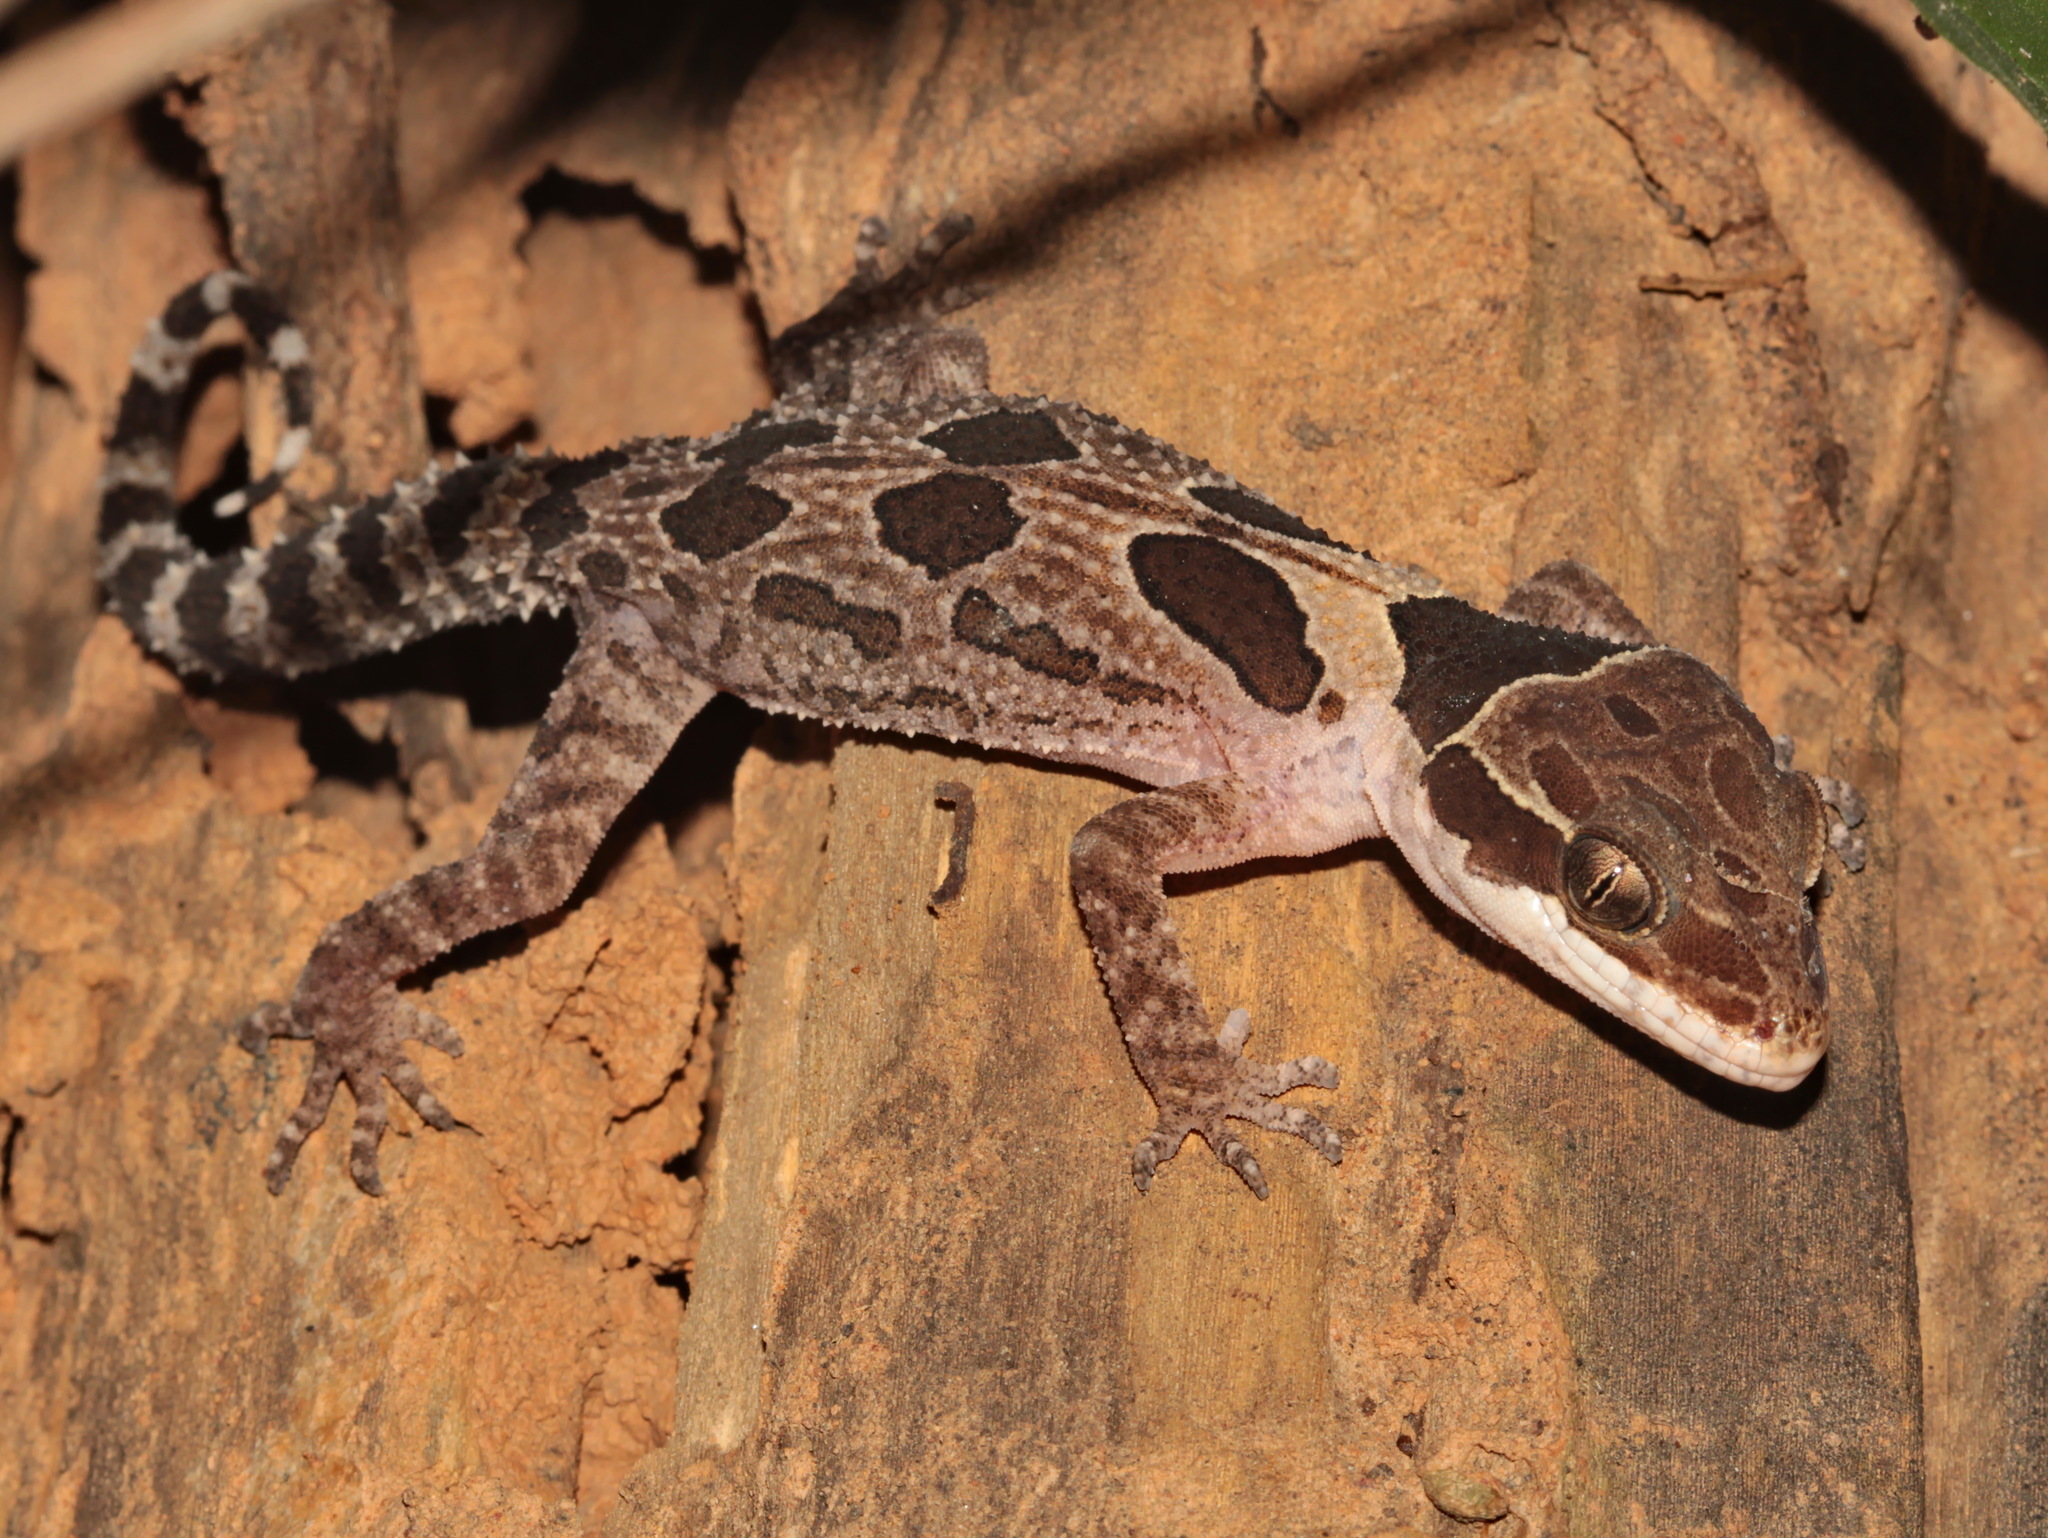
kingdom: Animalia
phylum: Chordata
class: Squamata
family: Gekkonidae
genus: Cyrtodactylus
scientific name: Cyrtodactylus angularis
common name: Angled forest gecko
